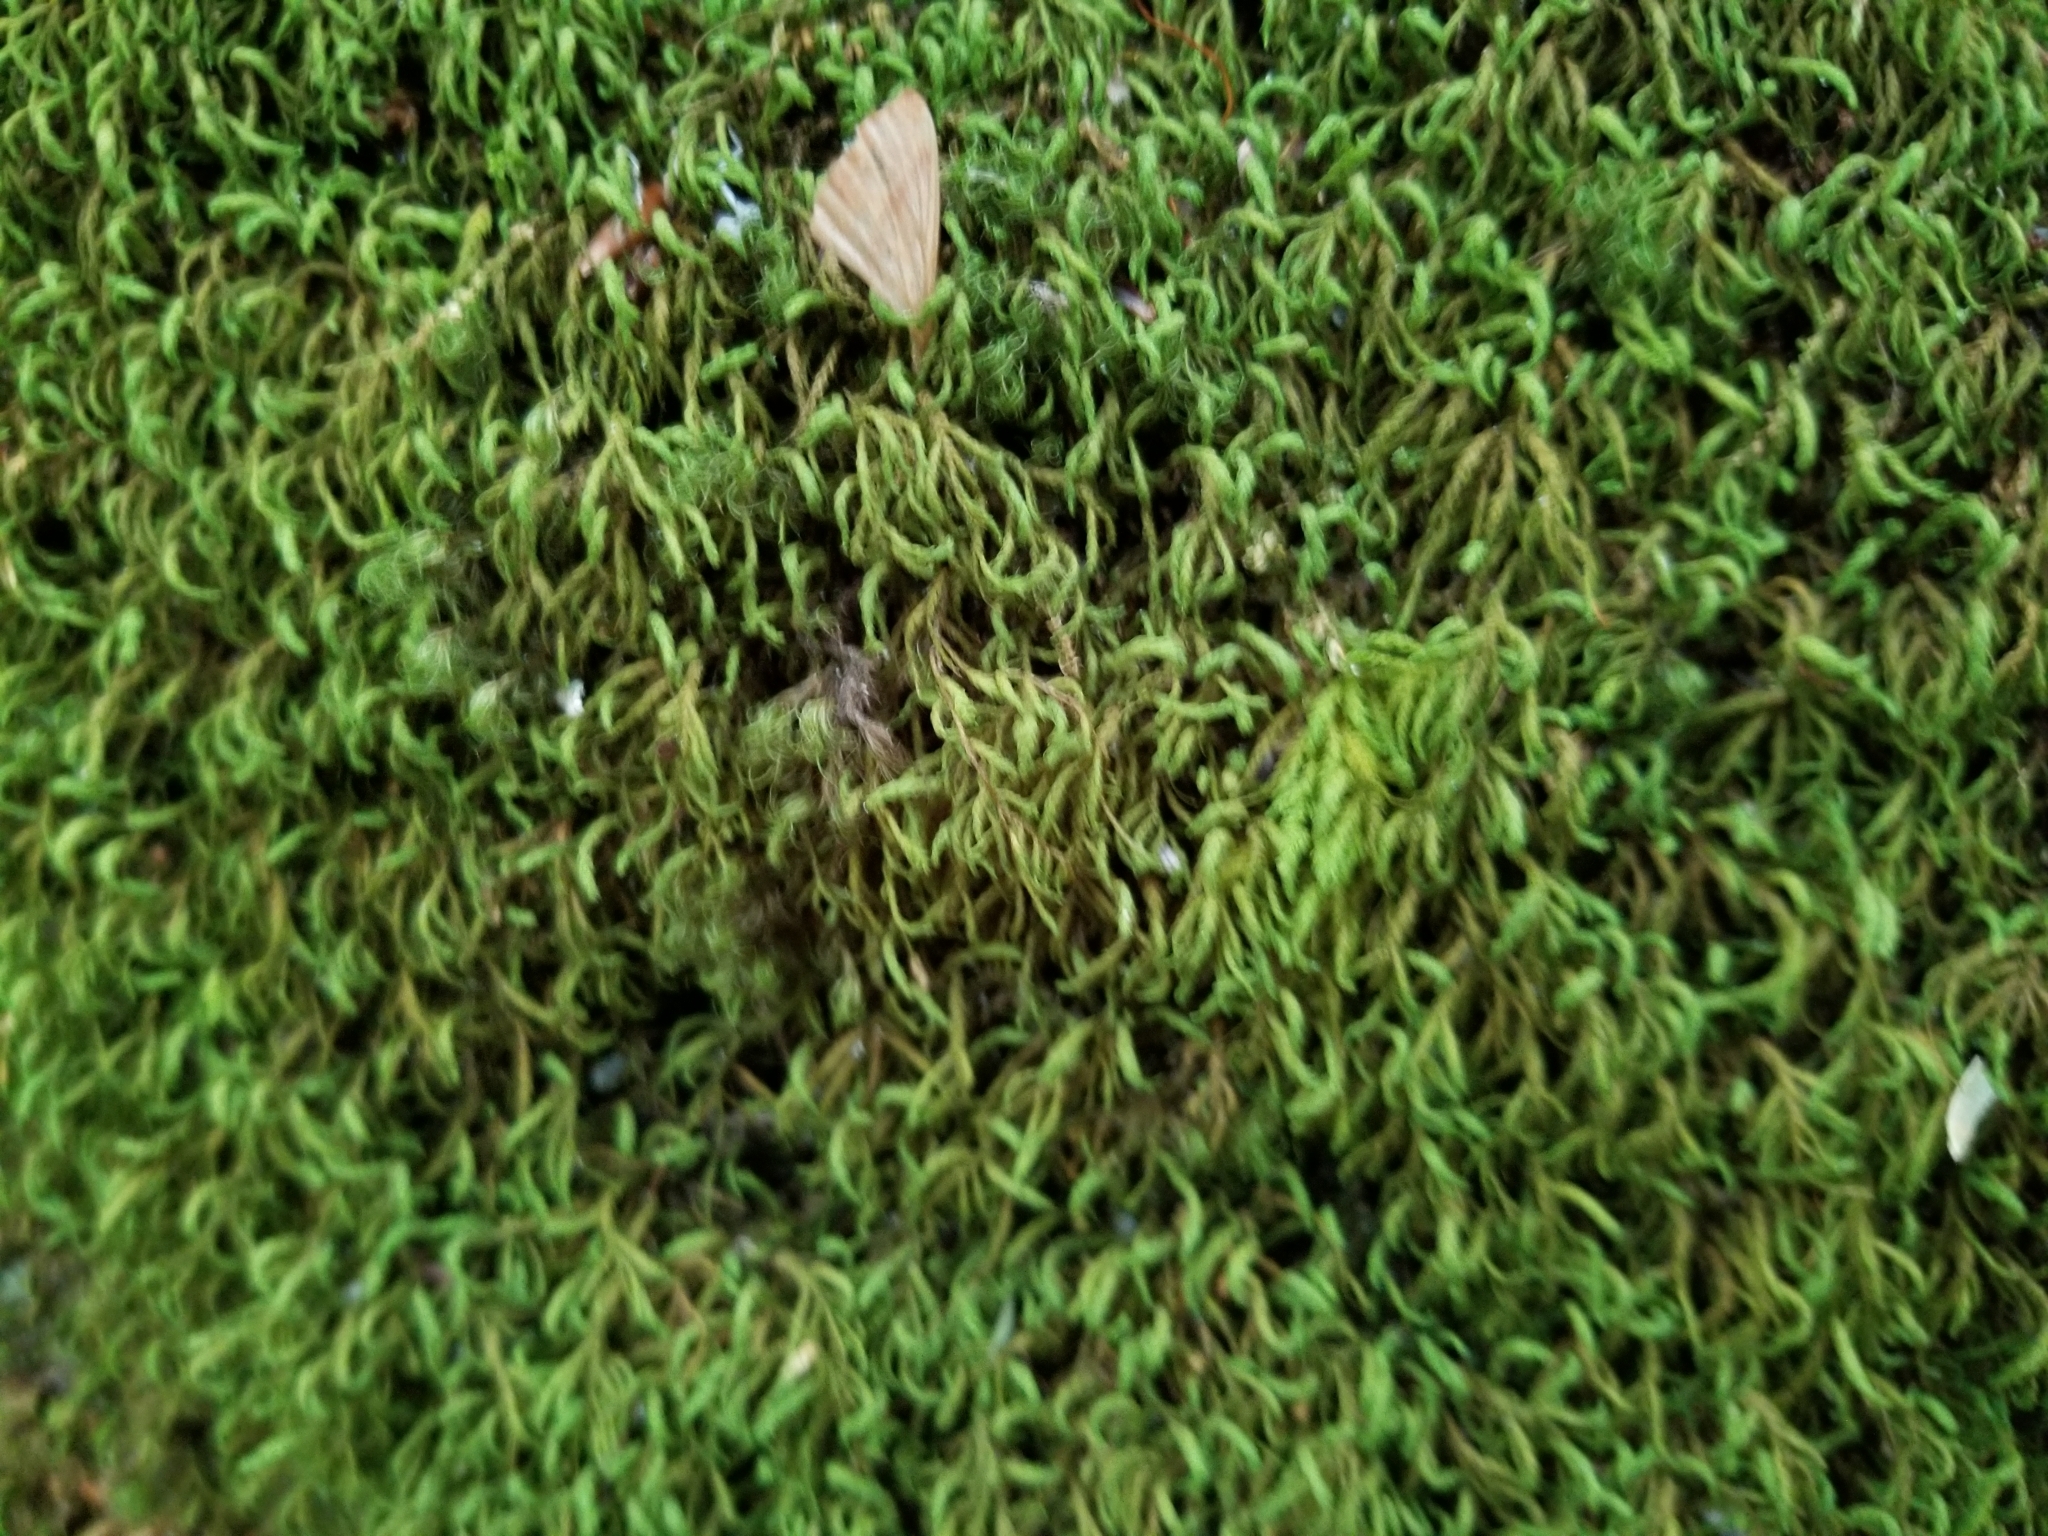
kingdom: Plantae
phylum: Bryophyta
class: Bryopsida
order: Hypnales
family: Neckeraceae
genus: Pseudanomodon
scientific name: Pseudanomodon attenuatus
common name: Tree-skirt moss
